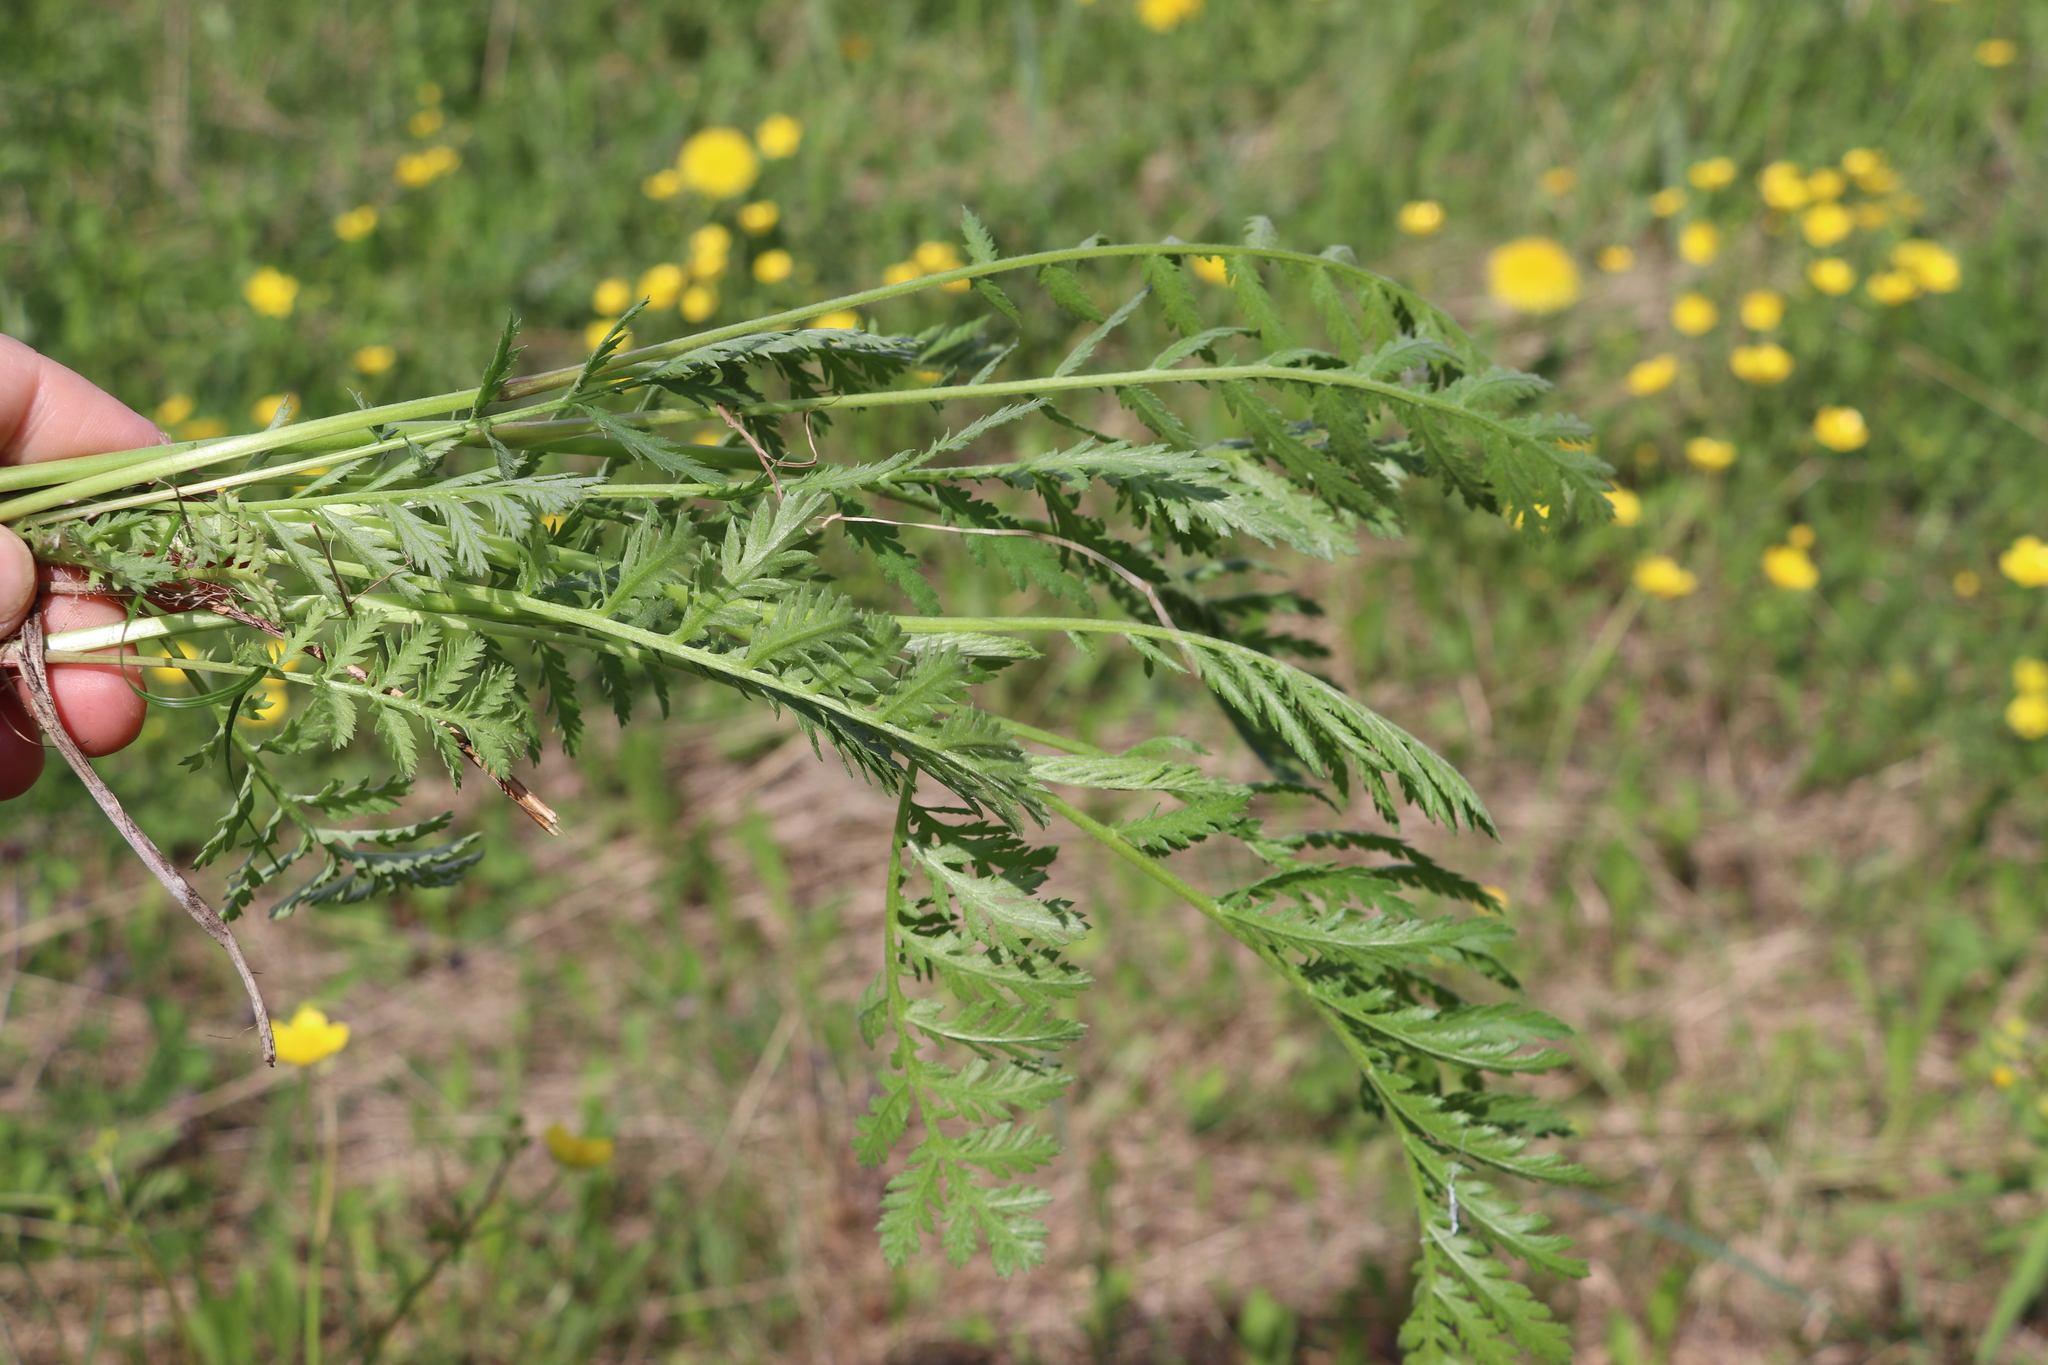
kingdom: Plantae
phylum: Tracheophyta
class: Magnoliopsida
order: Asterales
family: Asteraceae
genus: Tanacetum
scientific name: Tanacetum vulgare
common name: Common tansy
